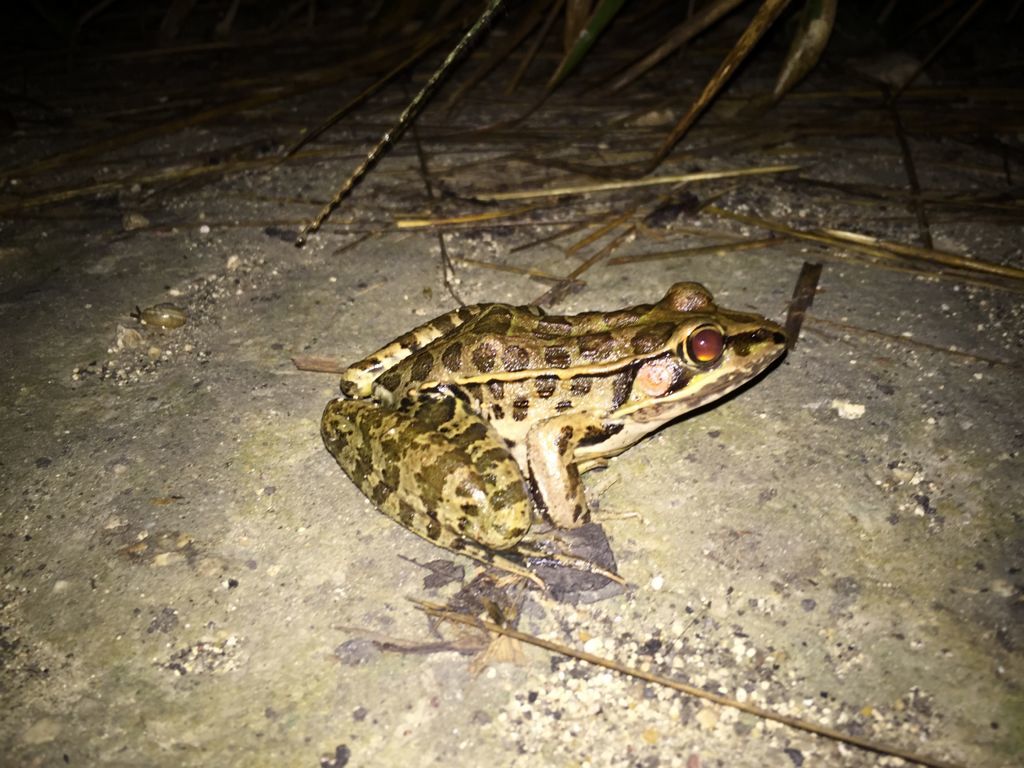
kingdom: Animalia
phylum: Chordata
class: Amphibia
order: Anura
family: Ranidae
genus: Lithobates
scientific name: Lithobates brownorum
